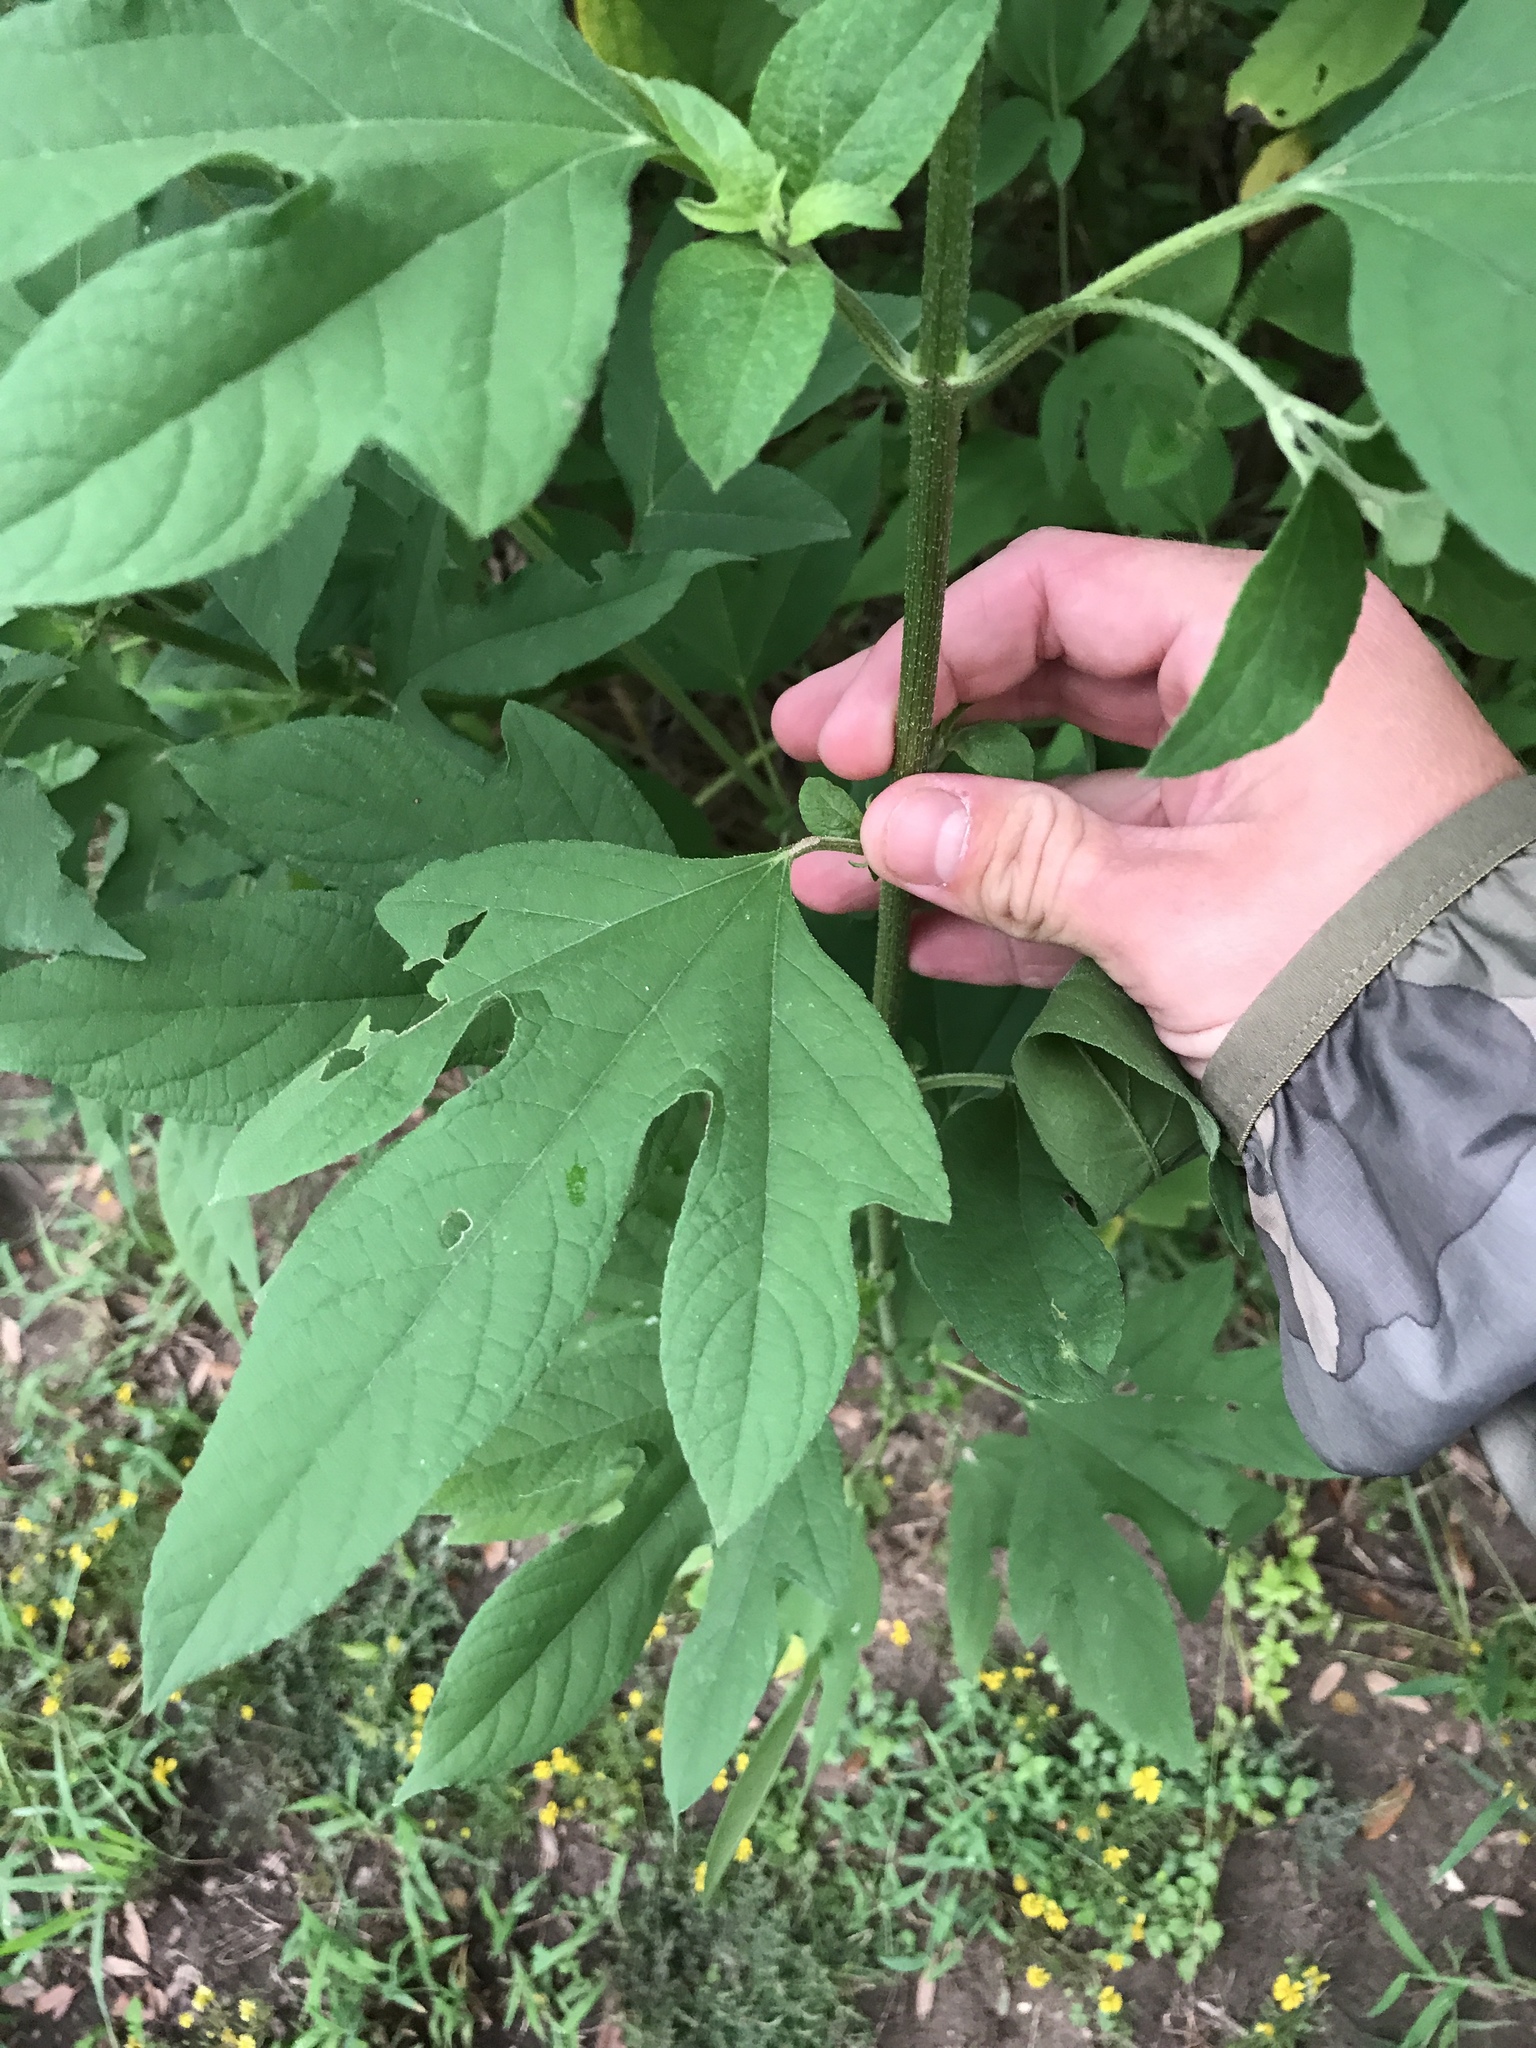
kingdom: Plantae
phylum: Tracheophyta
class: Magnoliopsida
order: Asterales
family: Asteraceae
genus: Ambrosia
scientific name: Ambrosia trifida
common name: Giant ragweed
